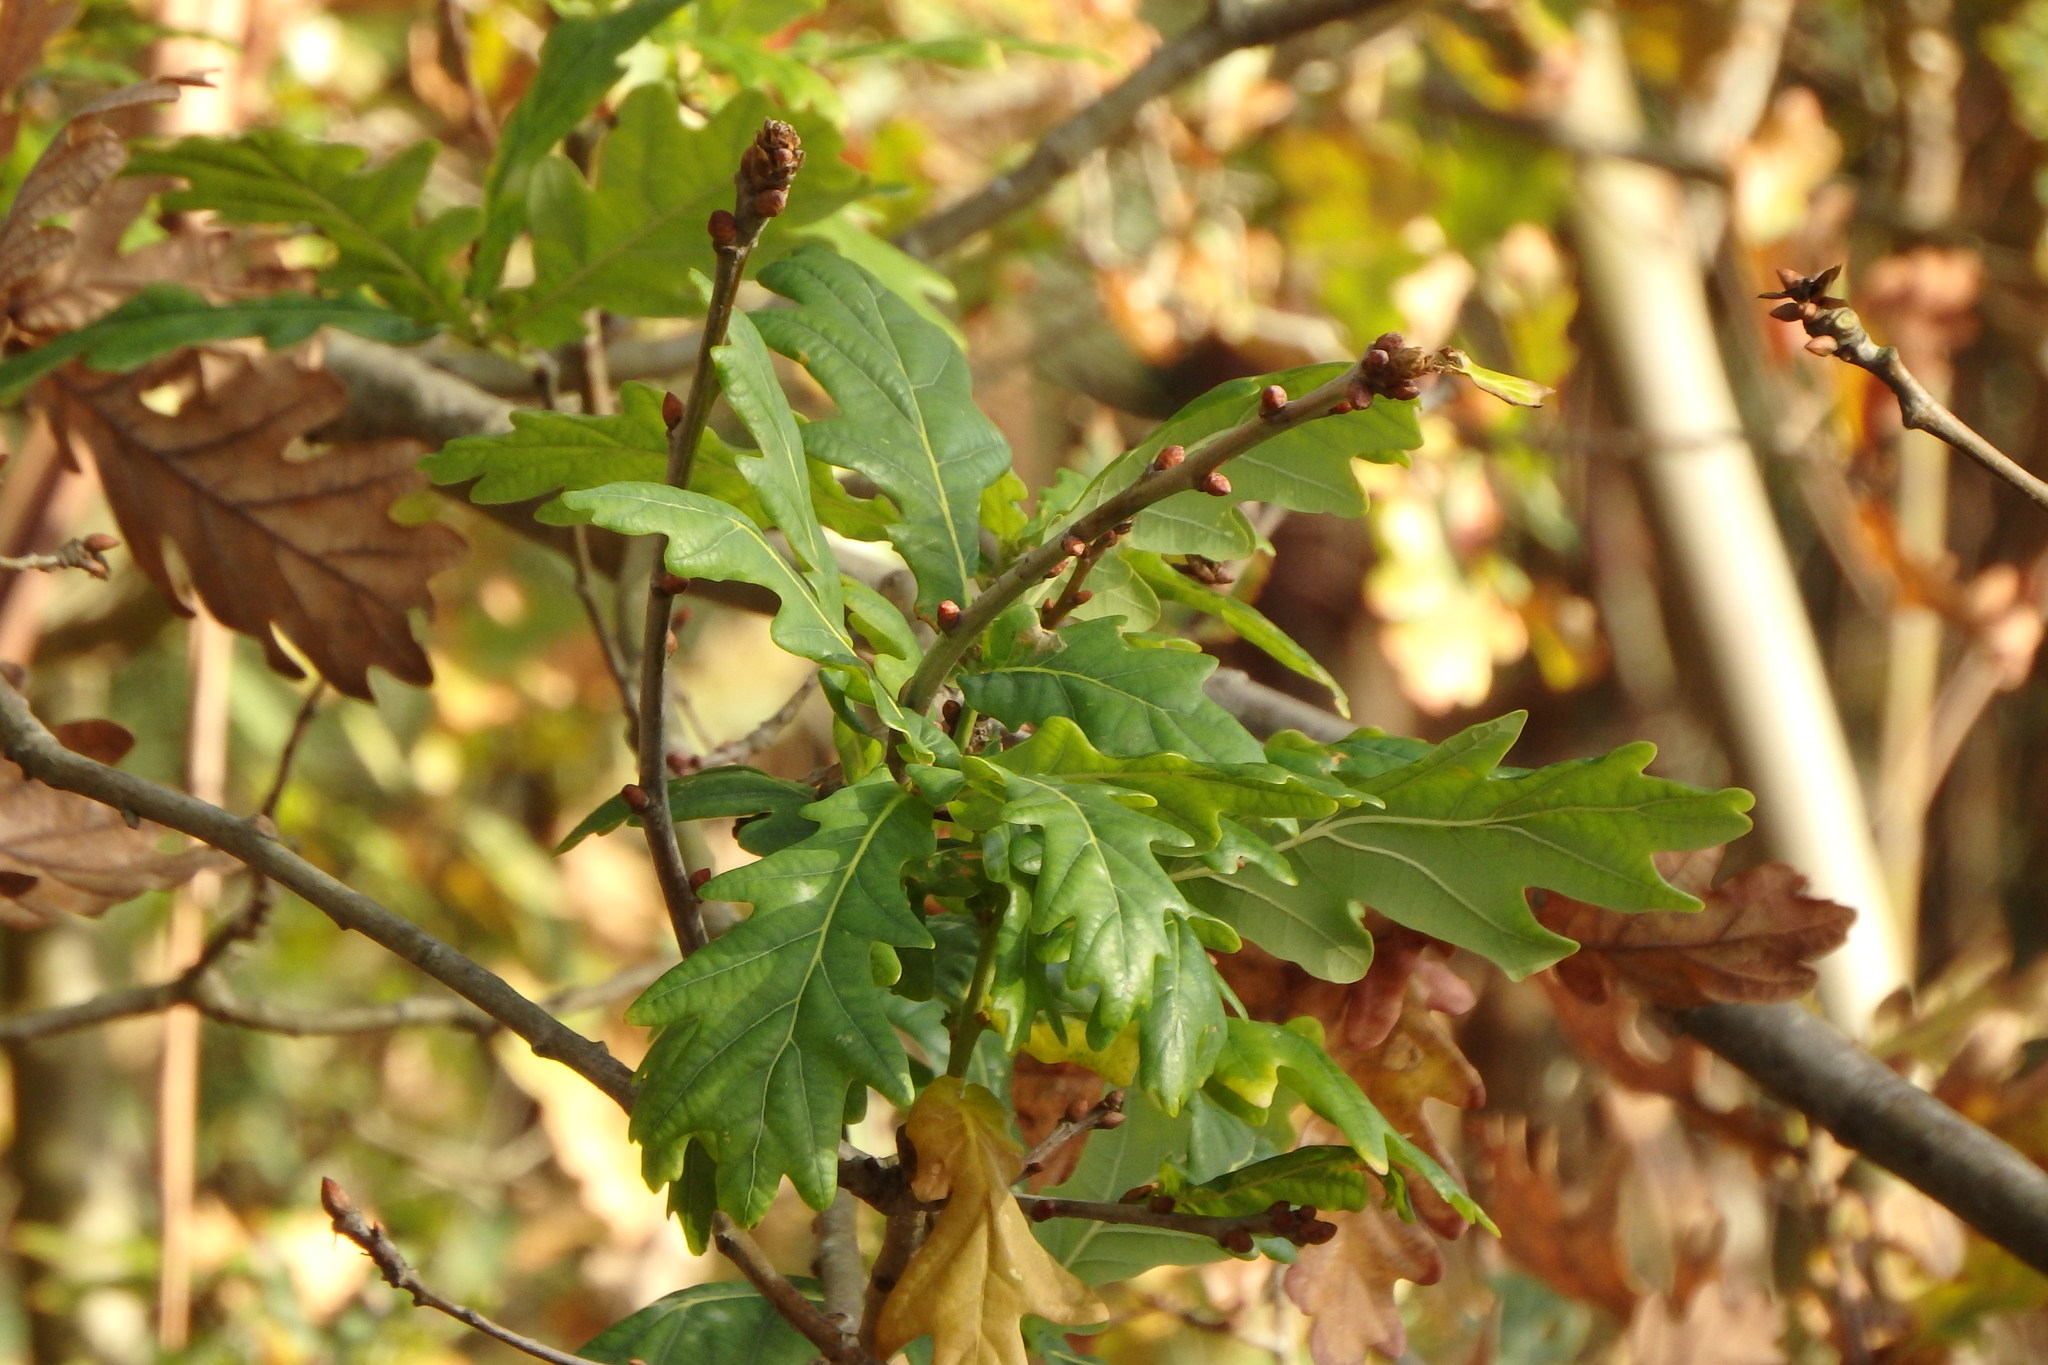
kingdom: Plantae
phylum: Tracheophyta
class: Magnoliopsida
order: Fagales
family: Fagaceae
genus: Quercus
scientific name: Quercus orocantabrica
